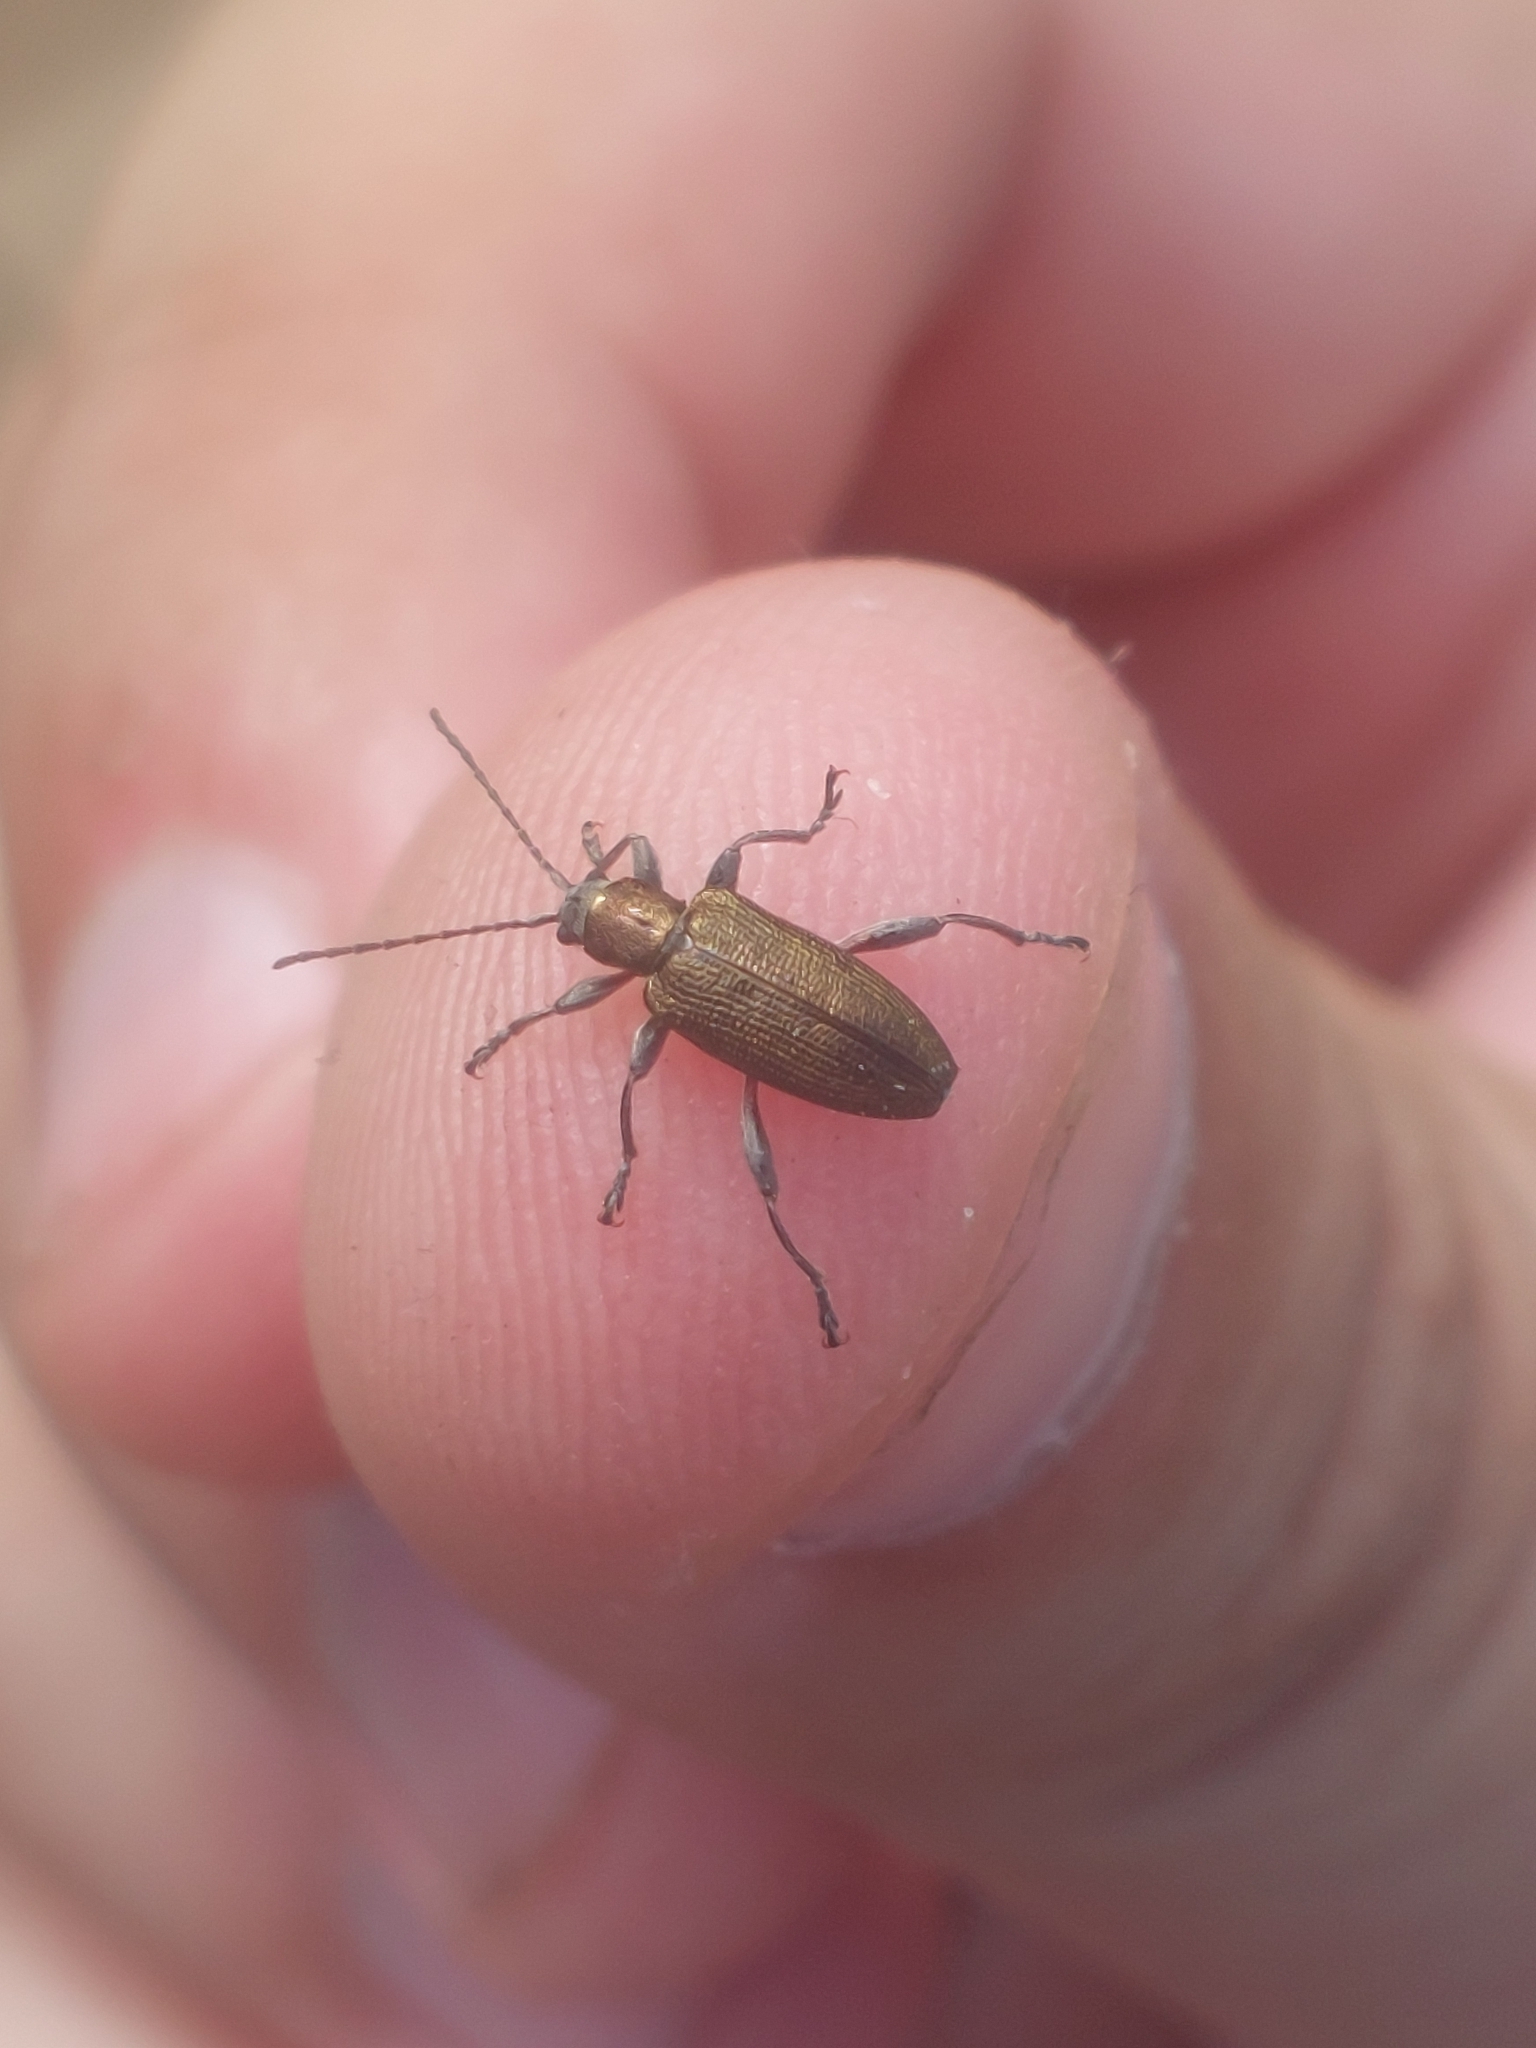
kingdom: Animalia
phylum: Arthropoda
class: Insecta
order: Coleoptera
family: Chrysomelidae
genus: Donacia
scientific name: Donacia semicuprea
